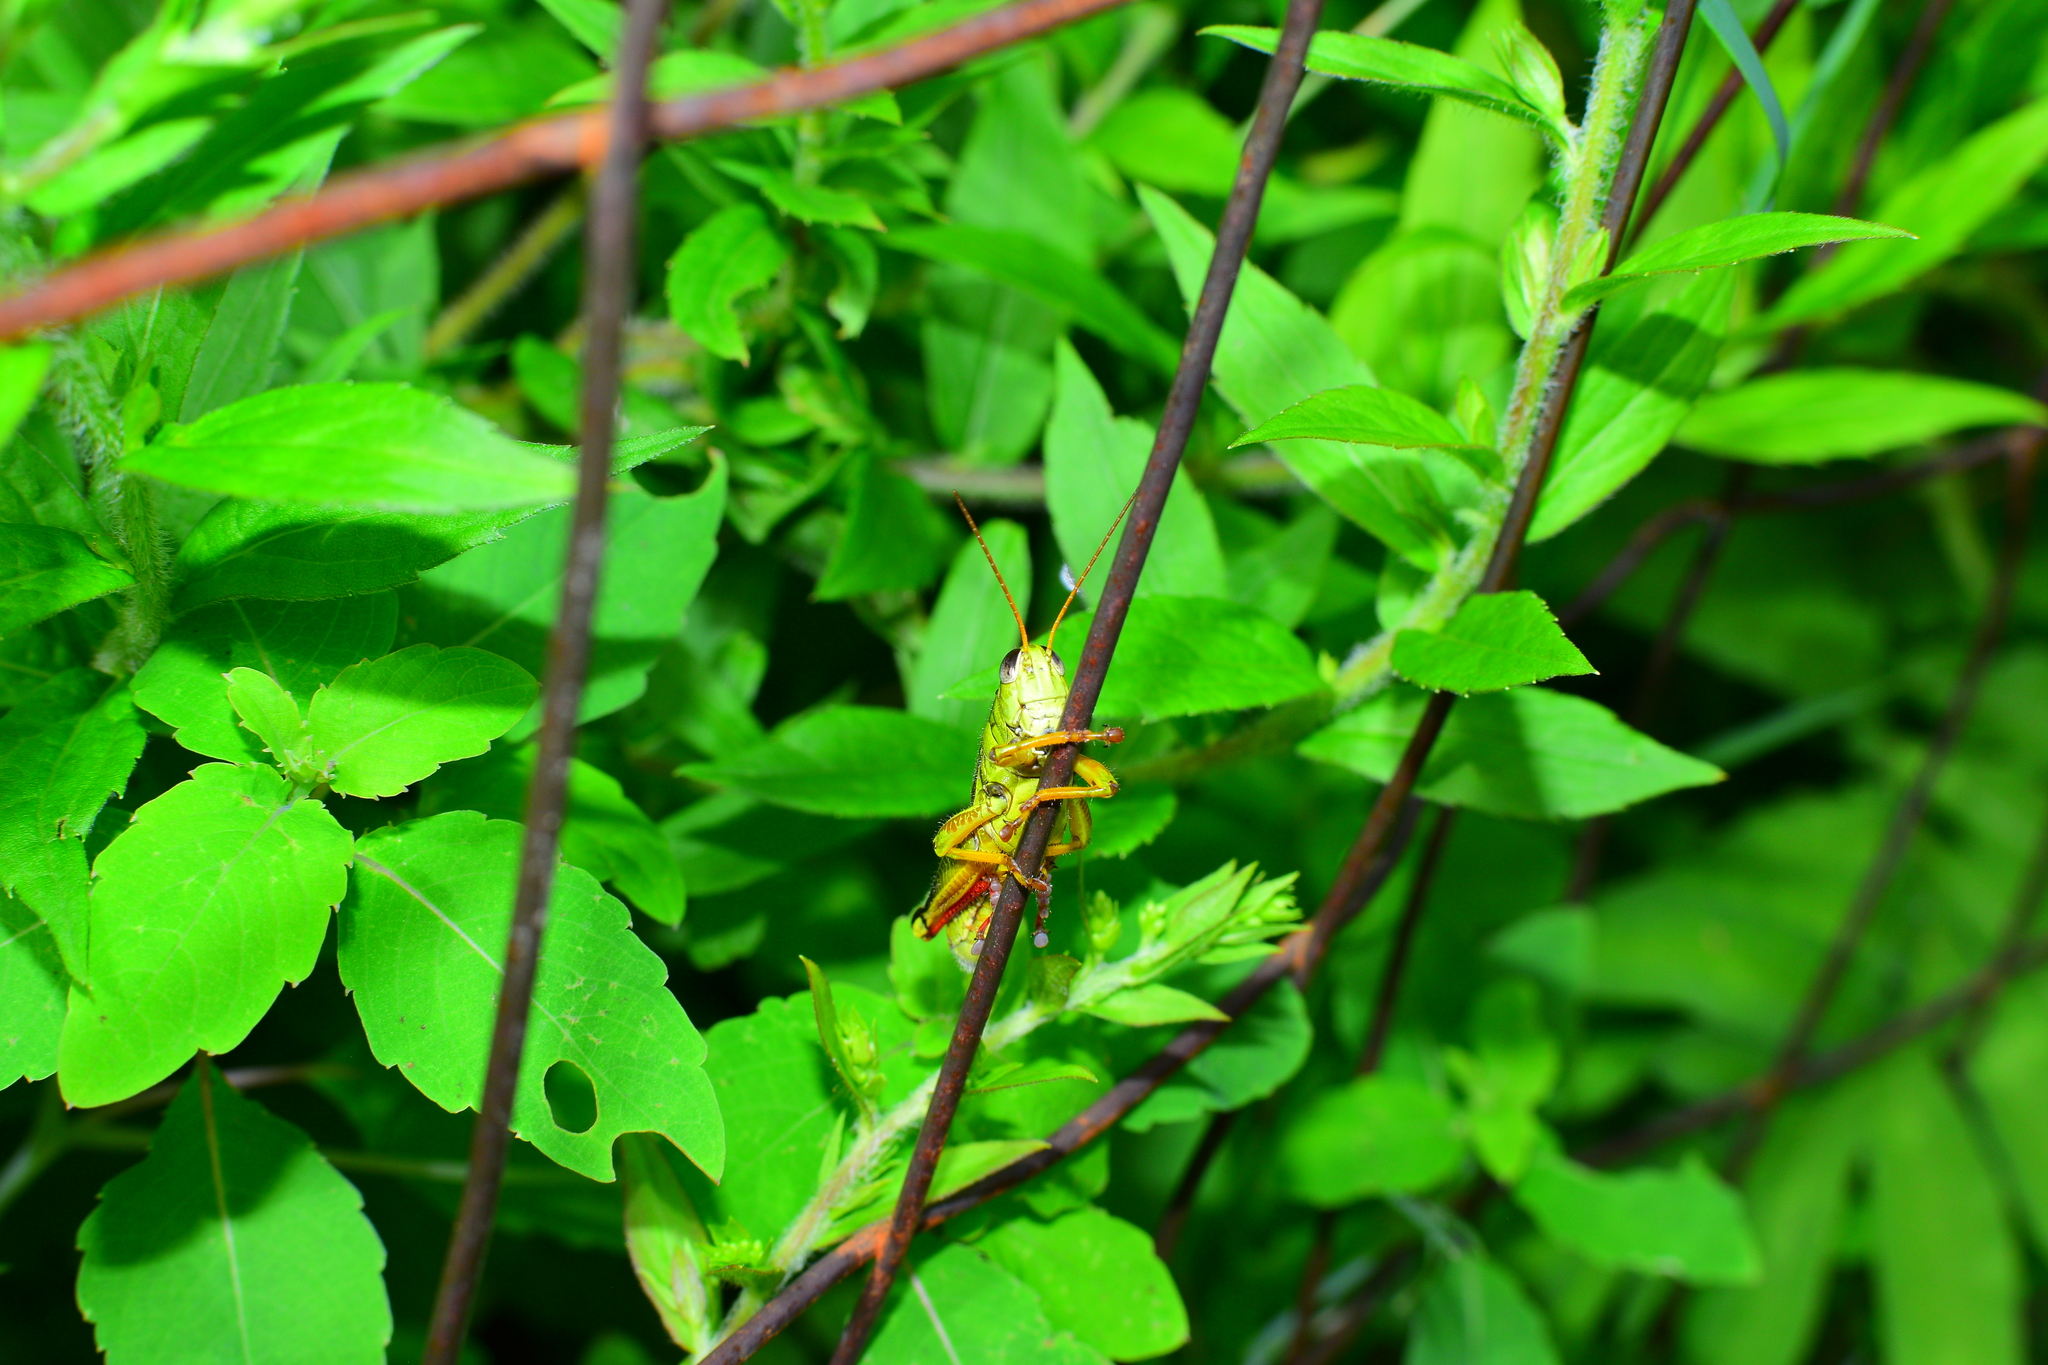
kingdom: Animalia
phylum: Arthropoda
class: Insecta
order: Orthoptera
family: Acrididae
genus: Melanoplus
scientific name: Melanoplus bivittatus
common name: Two-striped grasshopper
